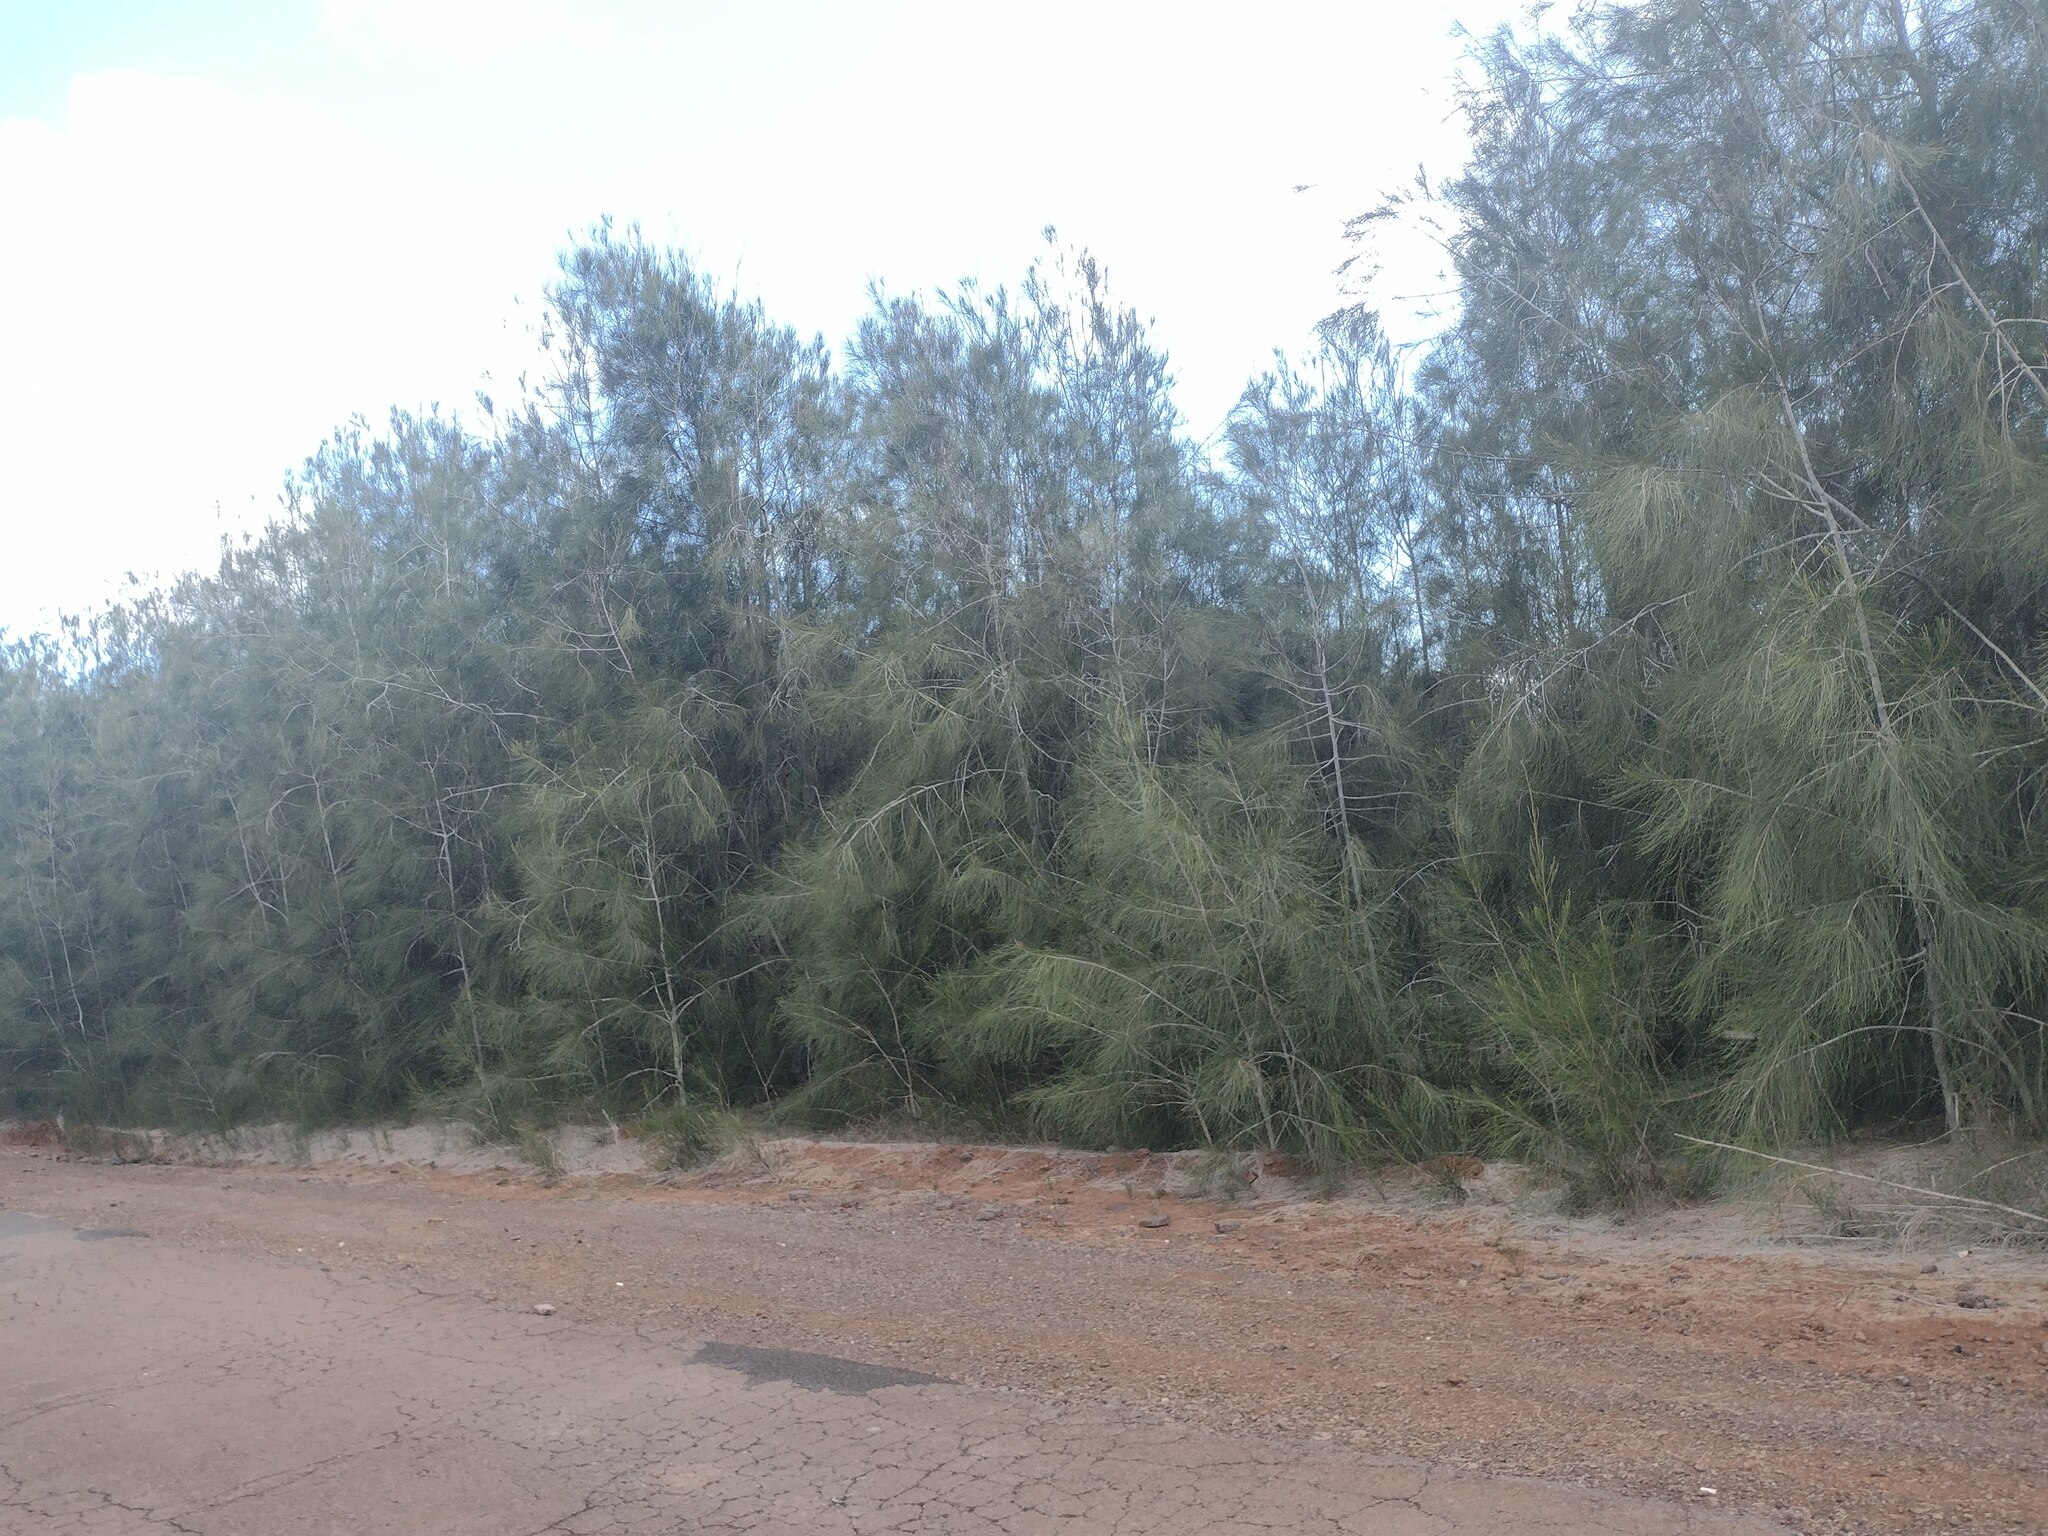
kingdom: Plantae
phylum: Tracheophyta
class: Magnoliopsida
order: Fagales
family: Casuarinaceae
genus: Casuarina
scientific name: Casuarina equisetifolia
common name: Beach sheoak
